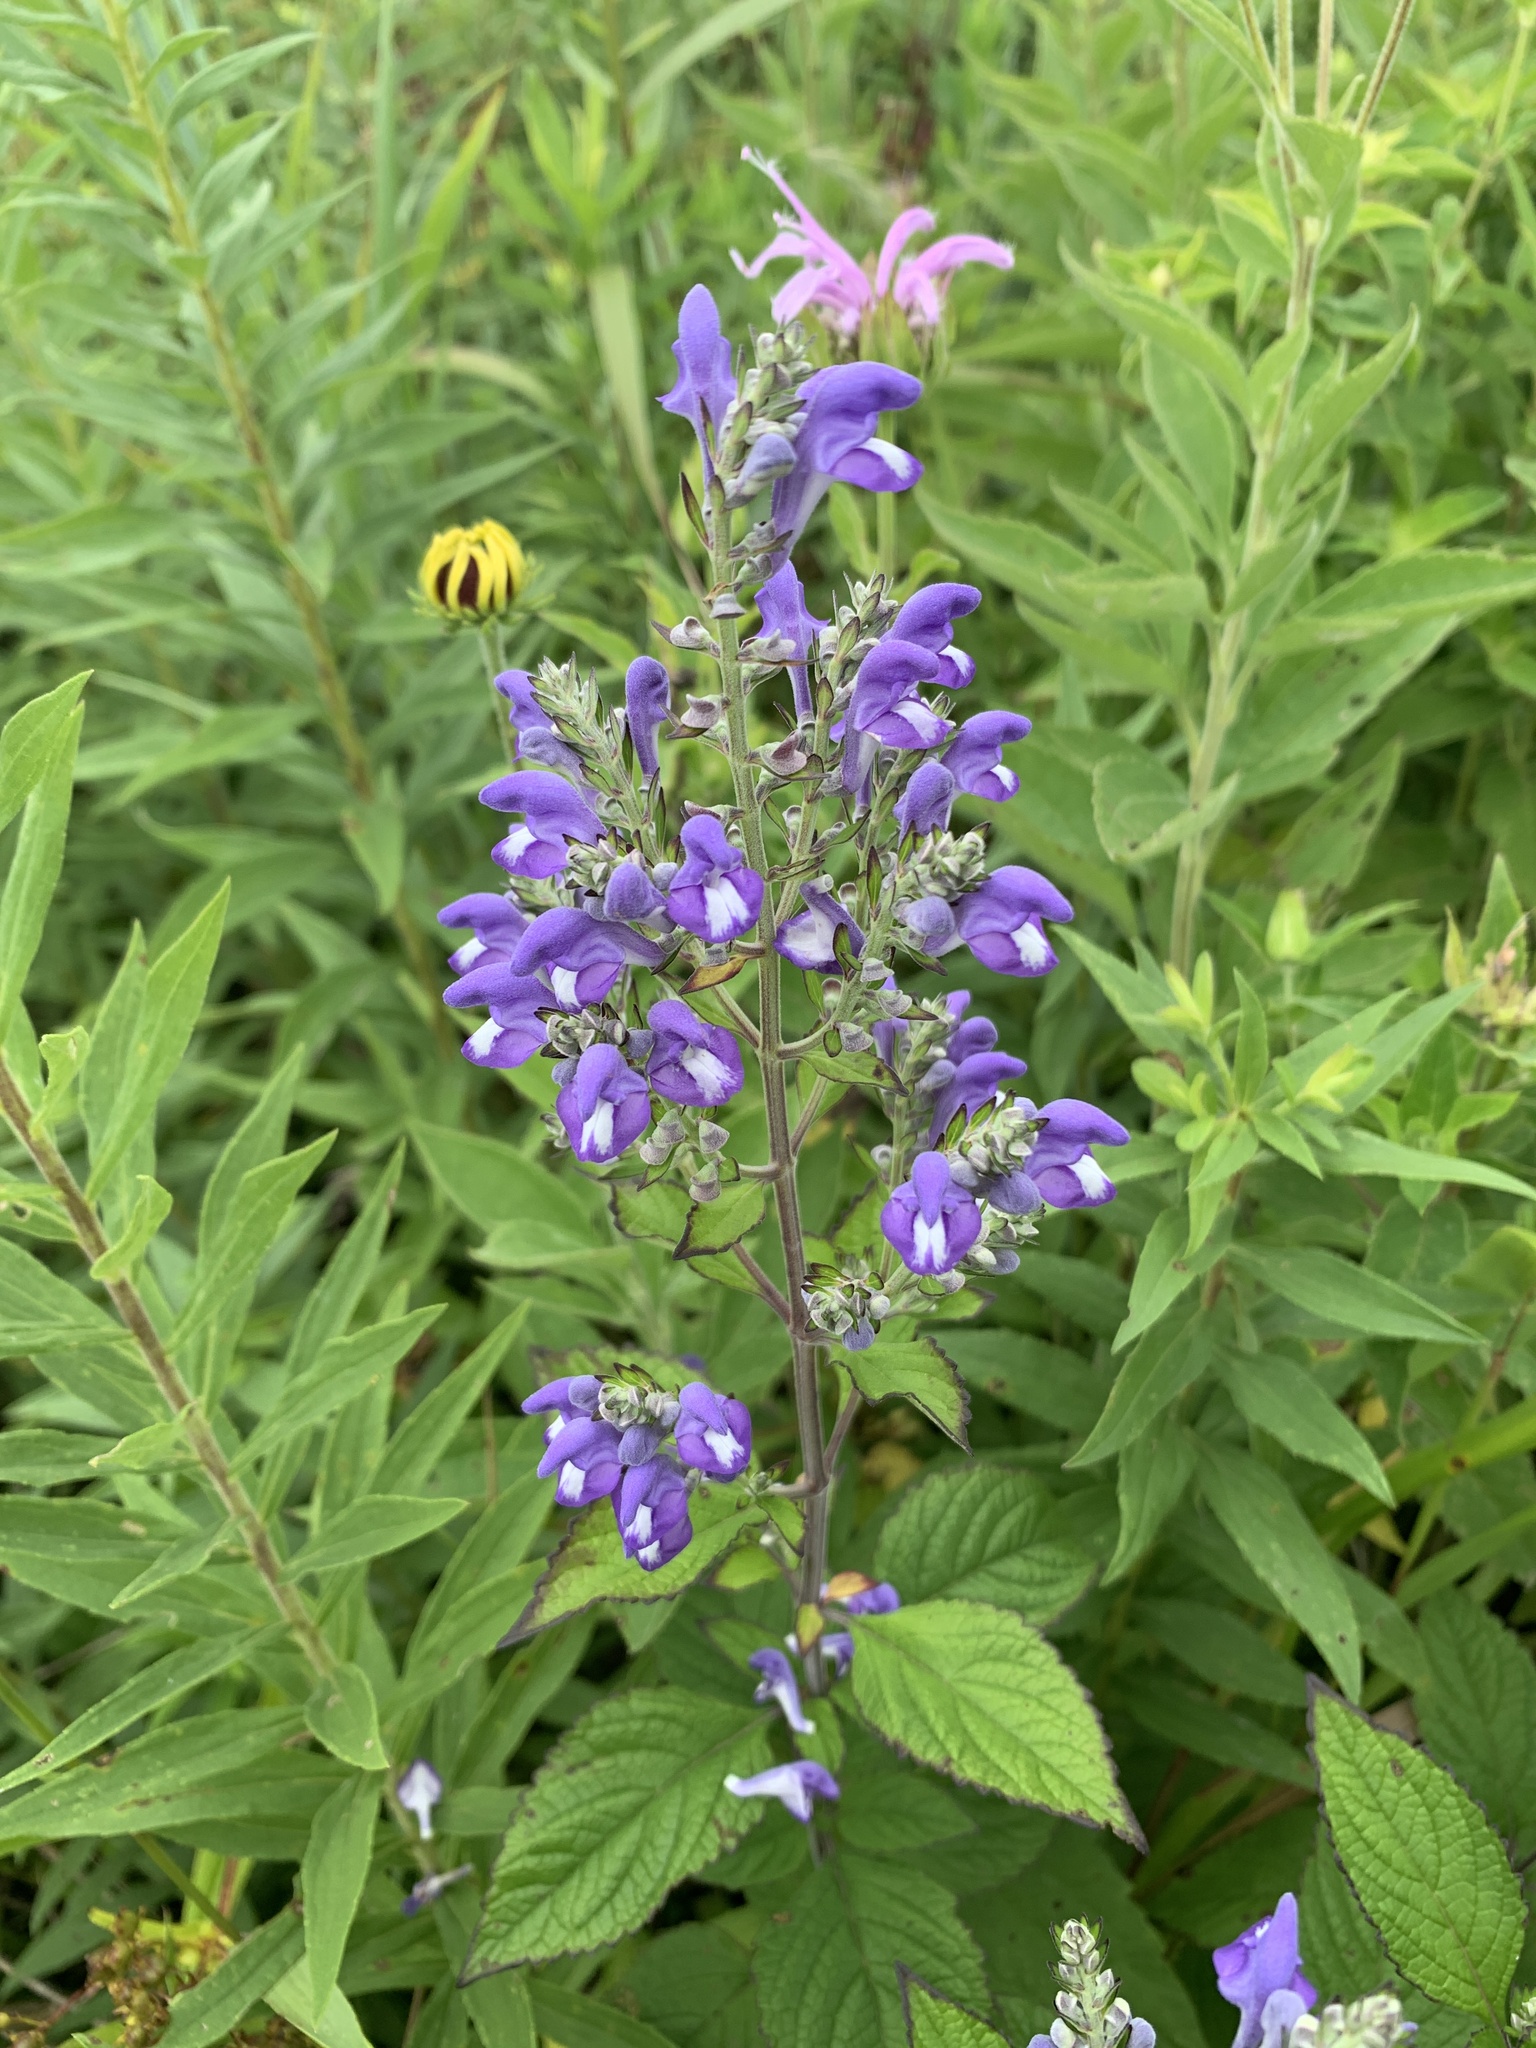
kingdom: Plantae
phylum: Tracheophyta
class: Magnoliopsida
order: Lamiales
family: Lamiaceae
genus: Scutellaria
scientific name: Scutellaria incana
